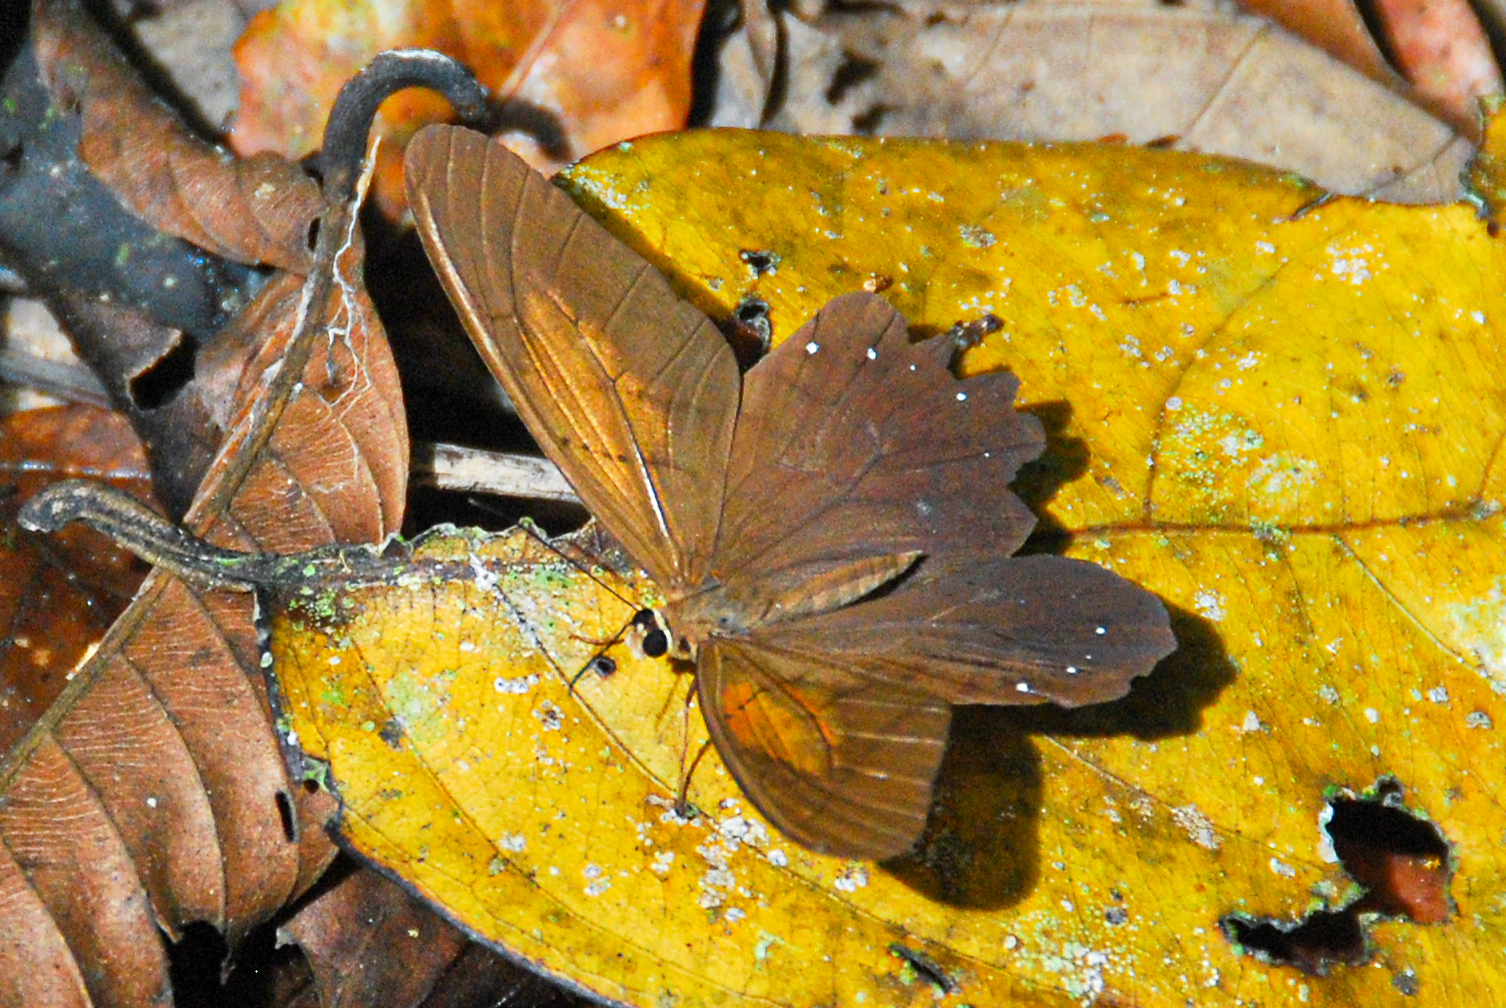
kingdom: Animalia
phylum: Arthropoda
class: Insecta
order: Lepidoptera
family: Nymphalidae
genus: Pierella
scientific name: Pierella rhea
